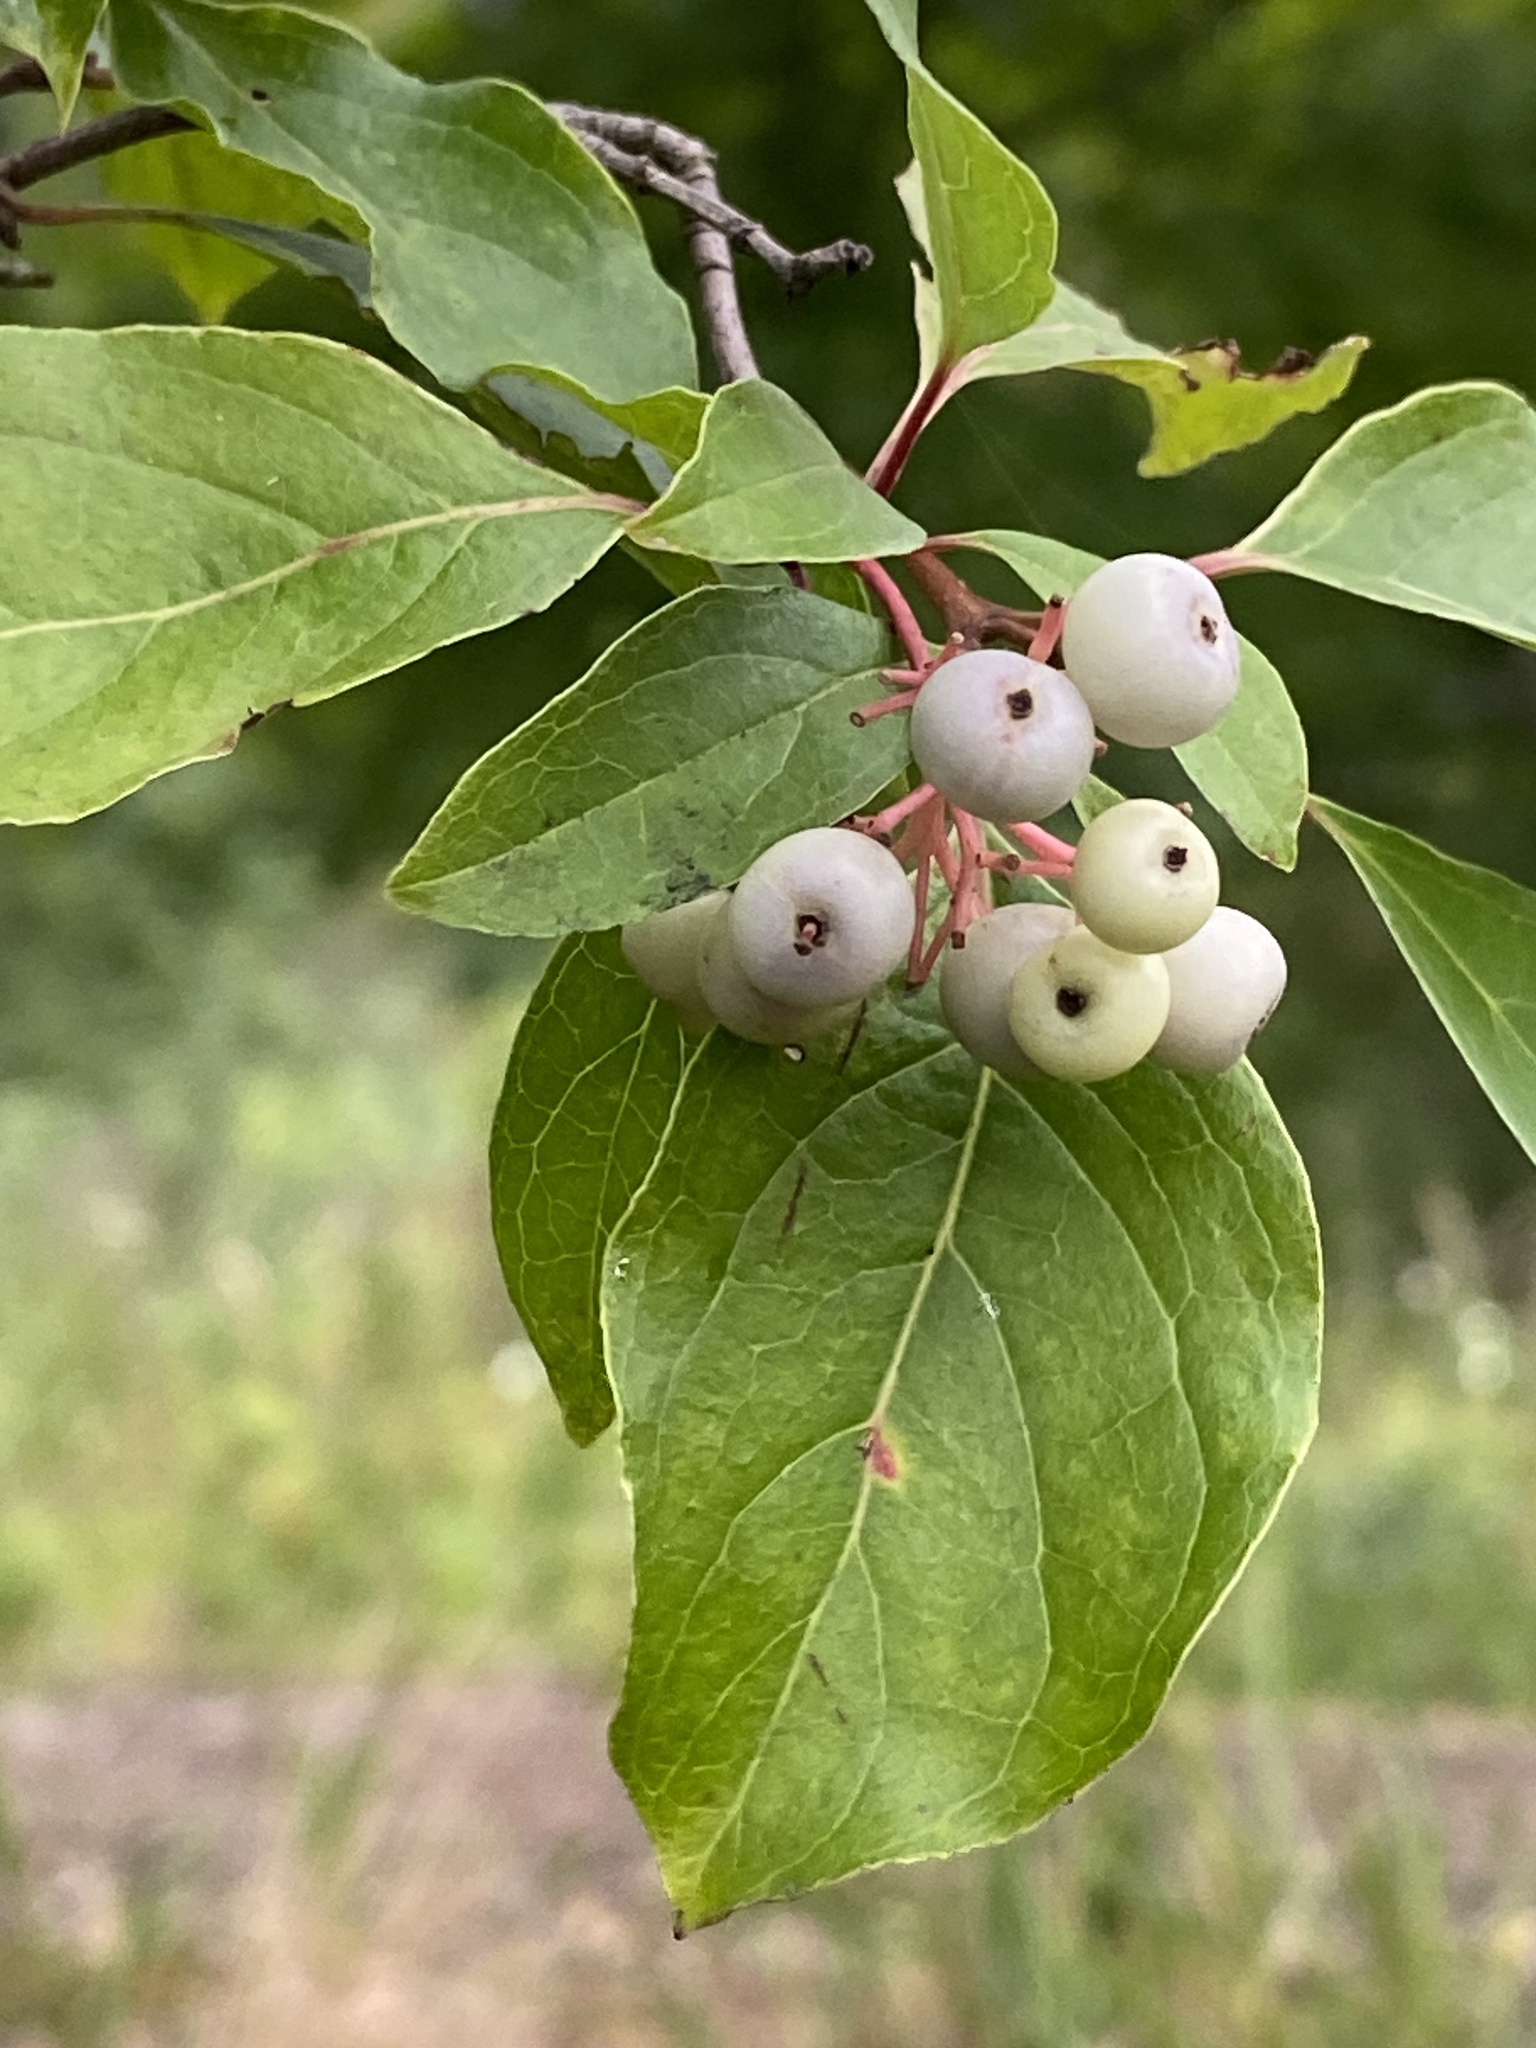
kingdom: Plantae
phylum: Tracheophyta
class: Magnoliopsida
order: Cornales
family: Cornaceae
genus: Cornus
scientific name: Cornus racemosa
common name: Panicled dogwood
